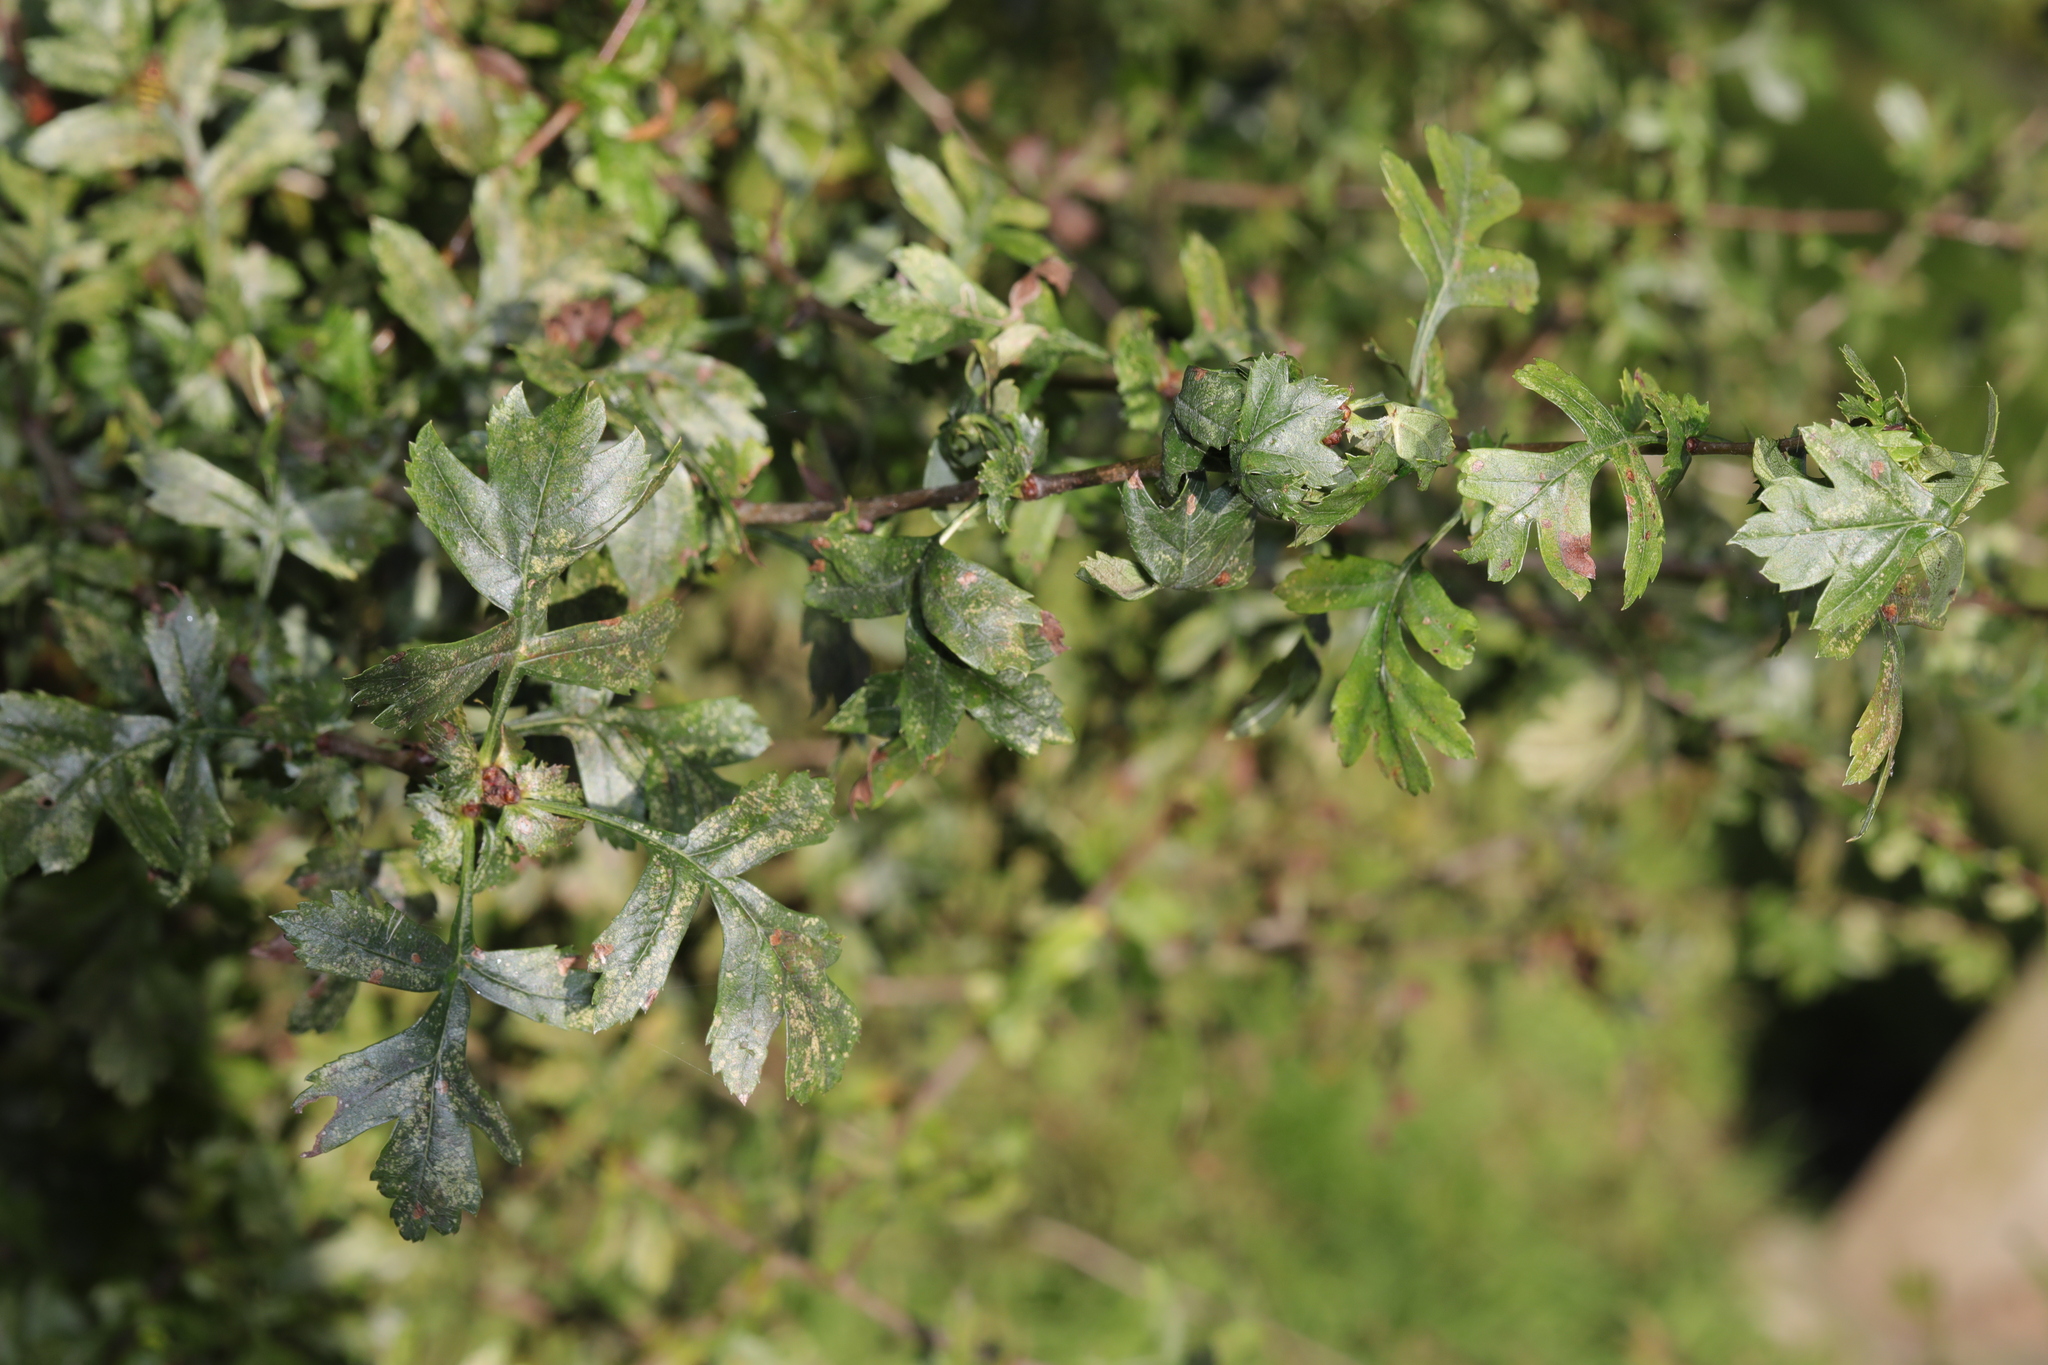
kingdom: Plantae
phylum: Tracheophyta
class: Magnoliopsida
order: Rosales
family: Rosaceae
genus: Crataegus
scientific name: Crataegus monogyna
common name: Hawthorn
